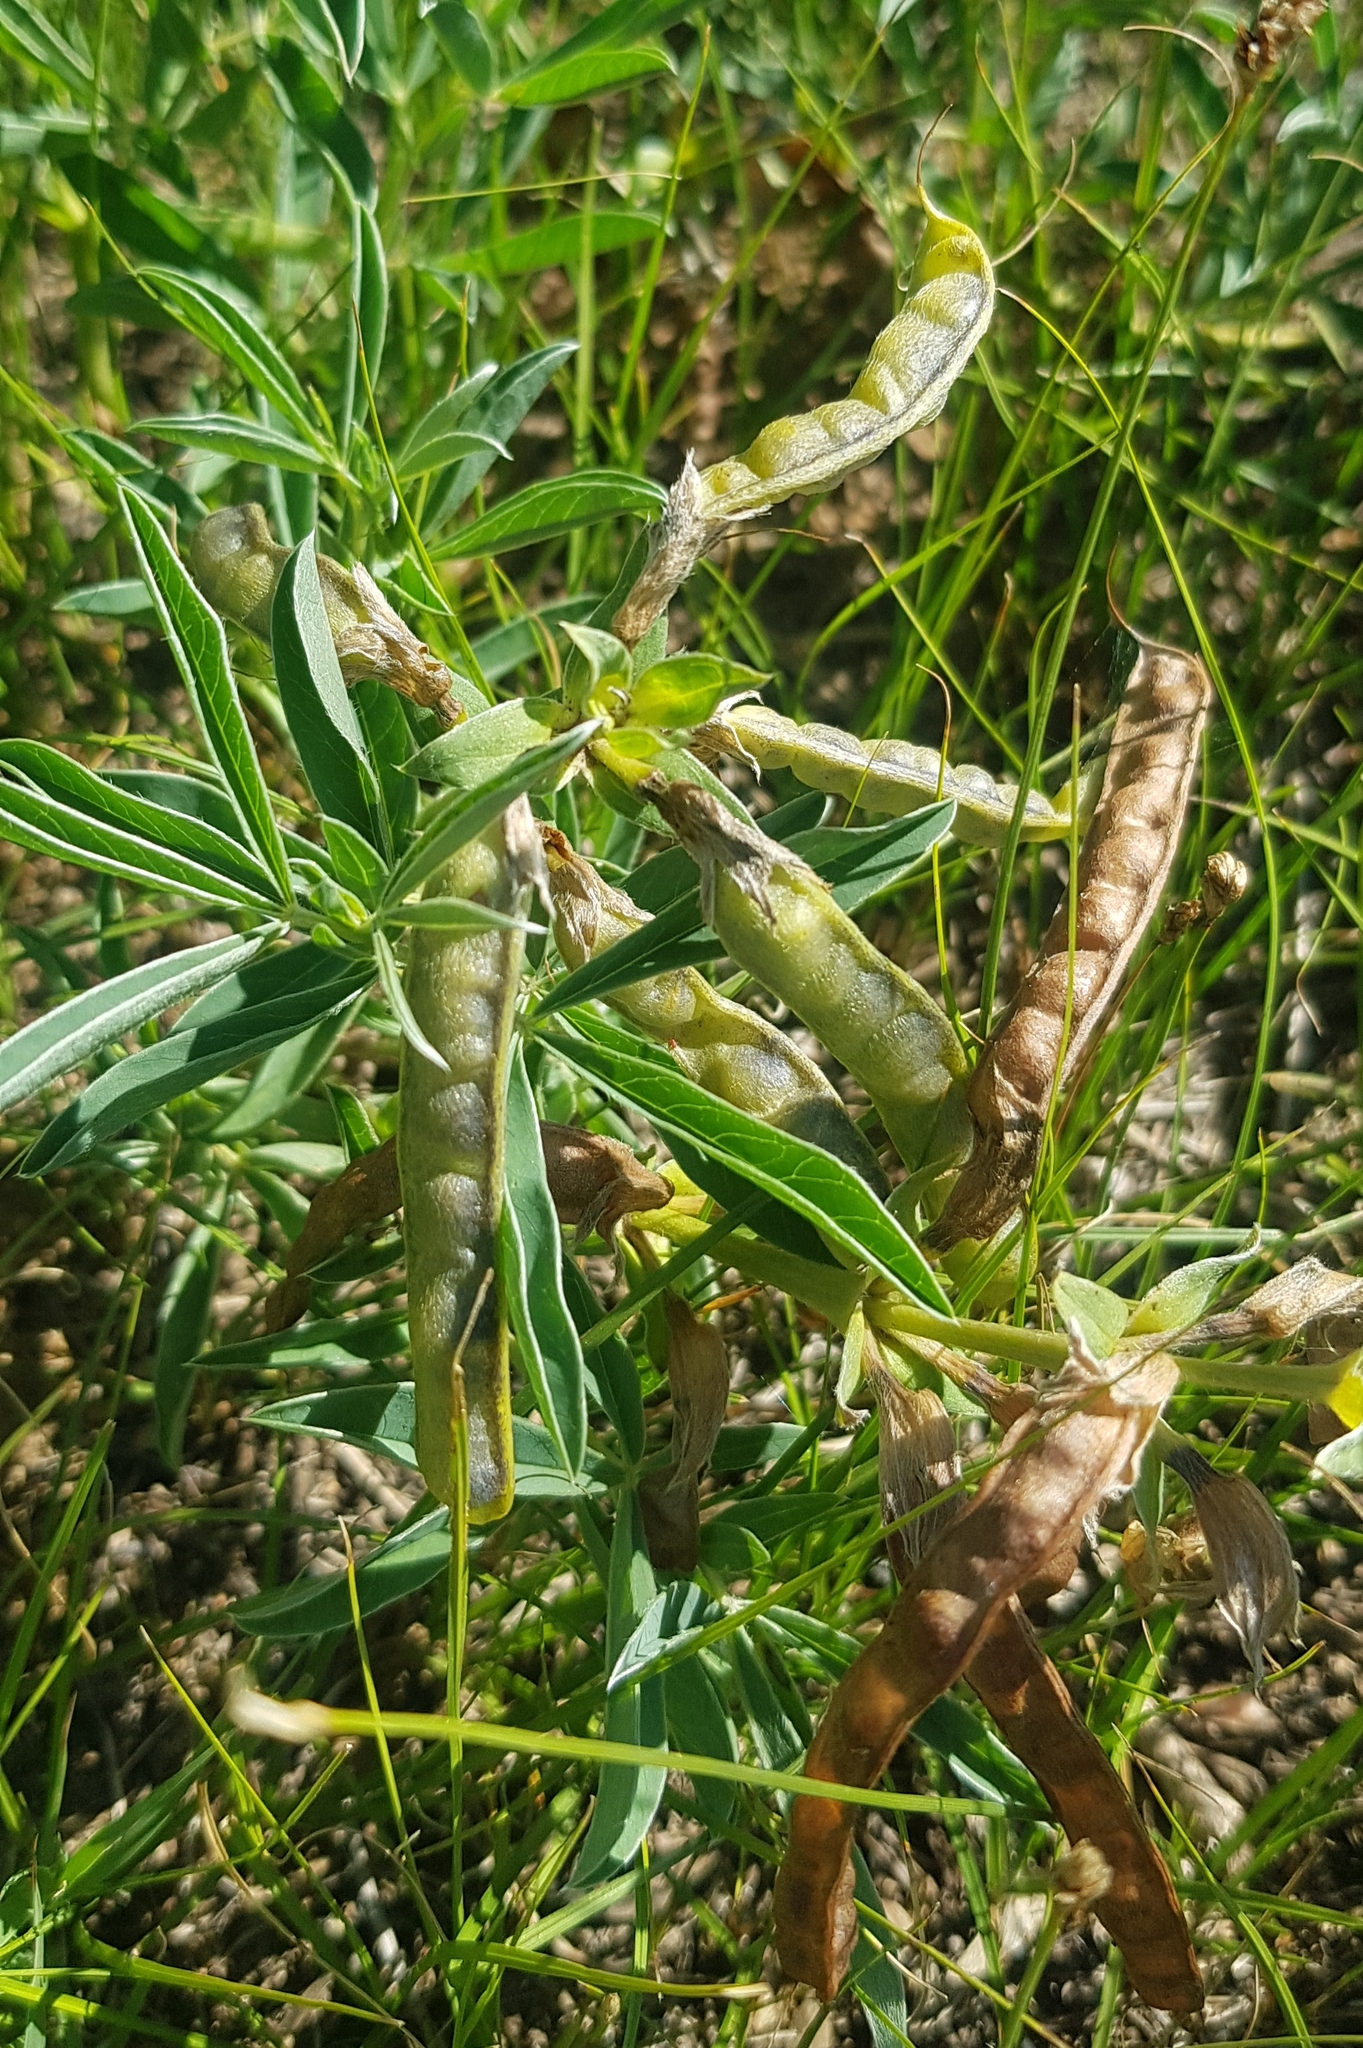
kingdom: Plantae
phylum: Tracheophyta
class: Magnoliopsida
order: Fabales
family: Fabaceae
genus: Thermopsis
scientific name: Thermopsis lanceolata
